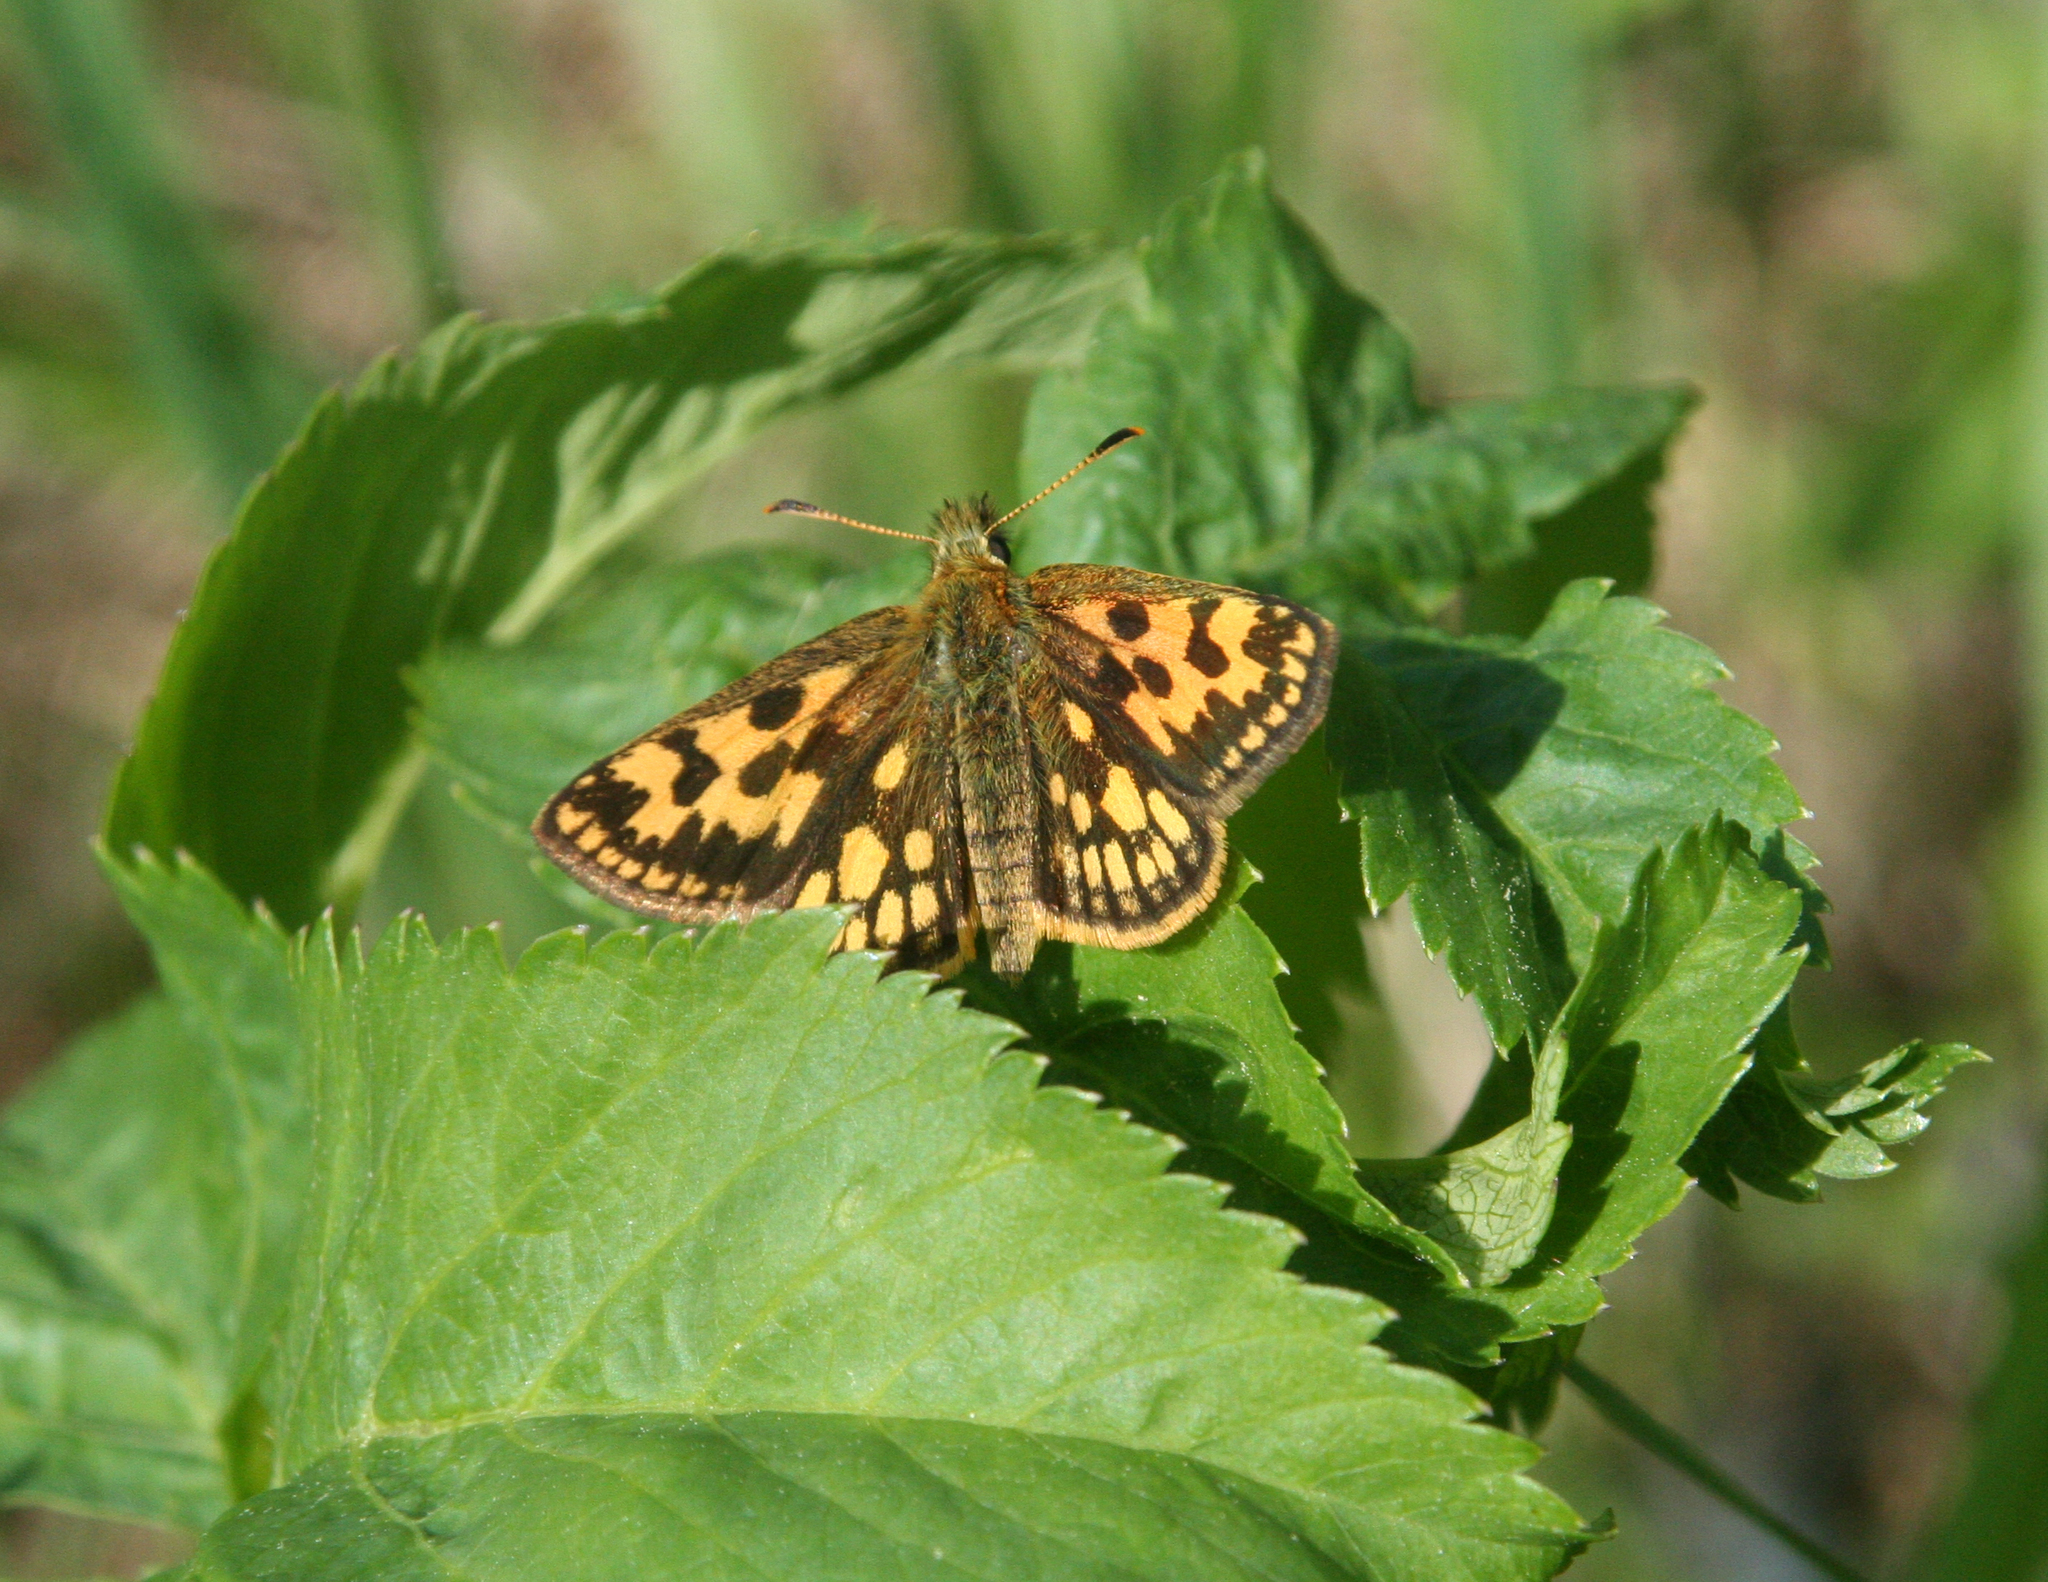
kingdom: Animalia
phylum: Arthropoda
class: Insecta
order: Lepidoptera
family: Hesperiidae
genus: Carterocephalus
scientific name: Carterocephalus silvicola
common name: Northern chequered skipper
